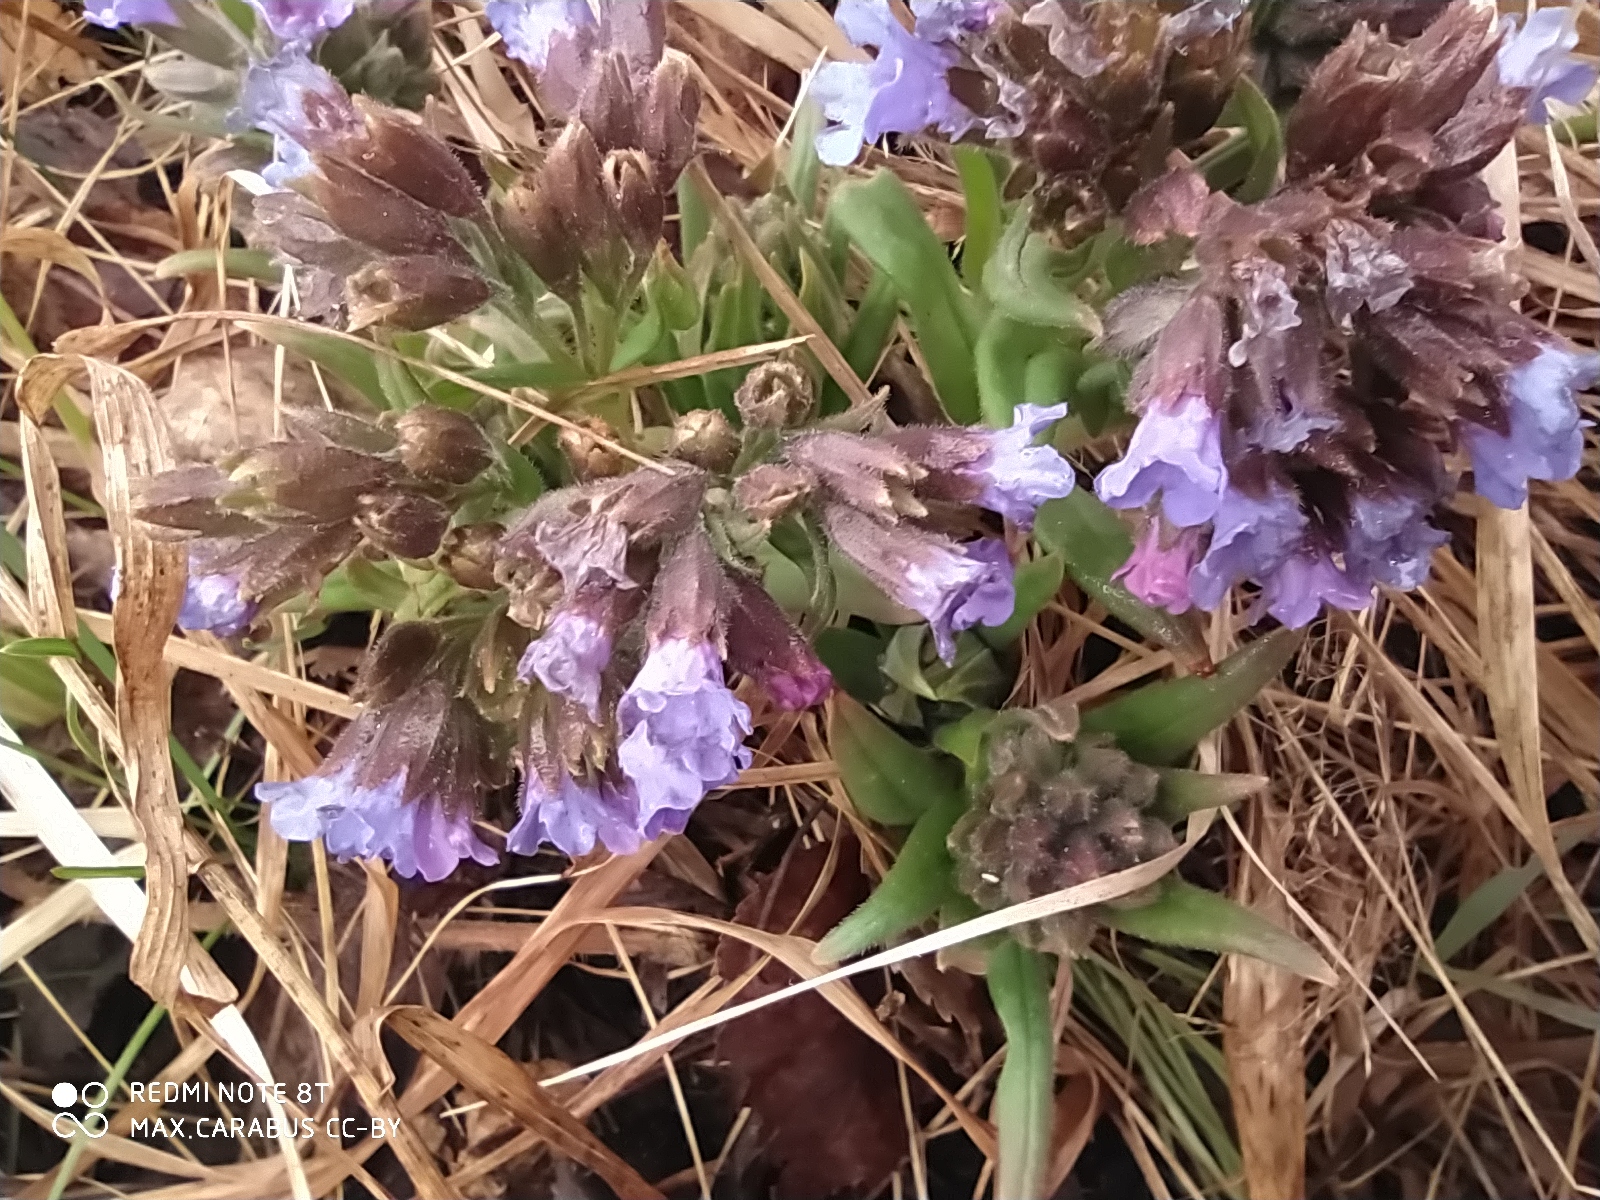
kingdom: Plantae
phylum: Tracheophyta
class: Magnoliopsida
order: Boraginales
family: Boraginaceae
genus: Pulmonaria
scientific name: Pulmonaria angustifolia
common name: Blue cowslip
